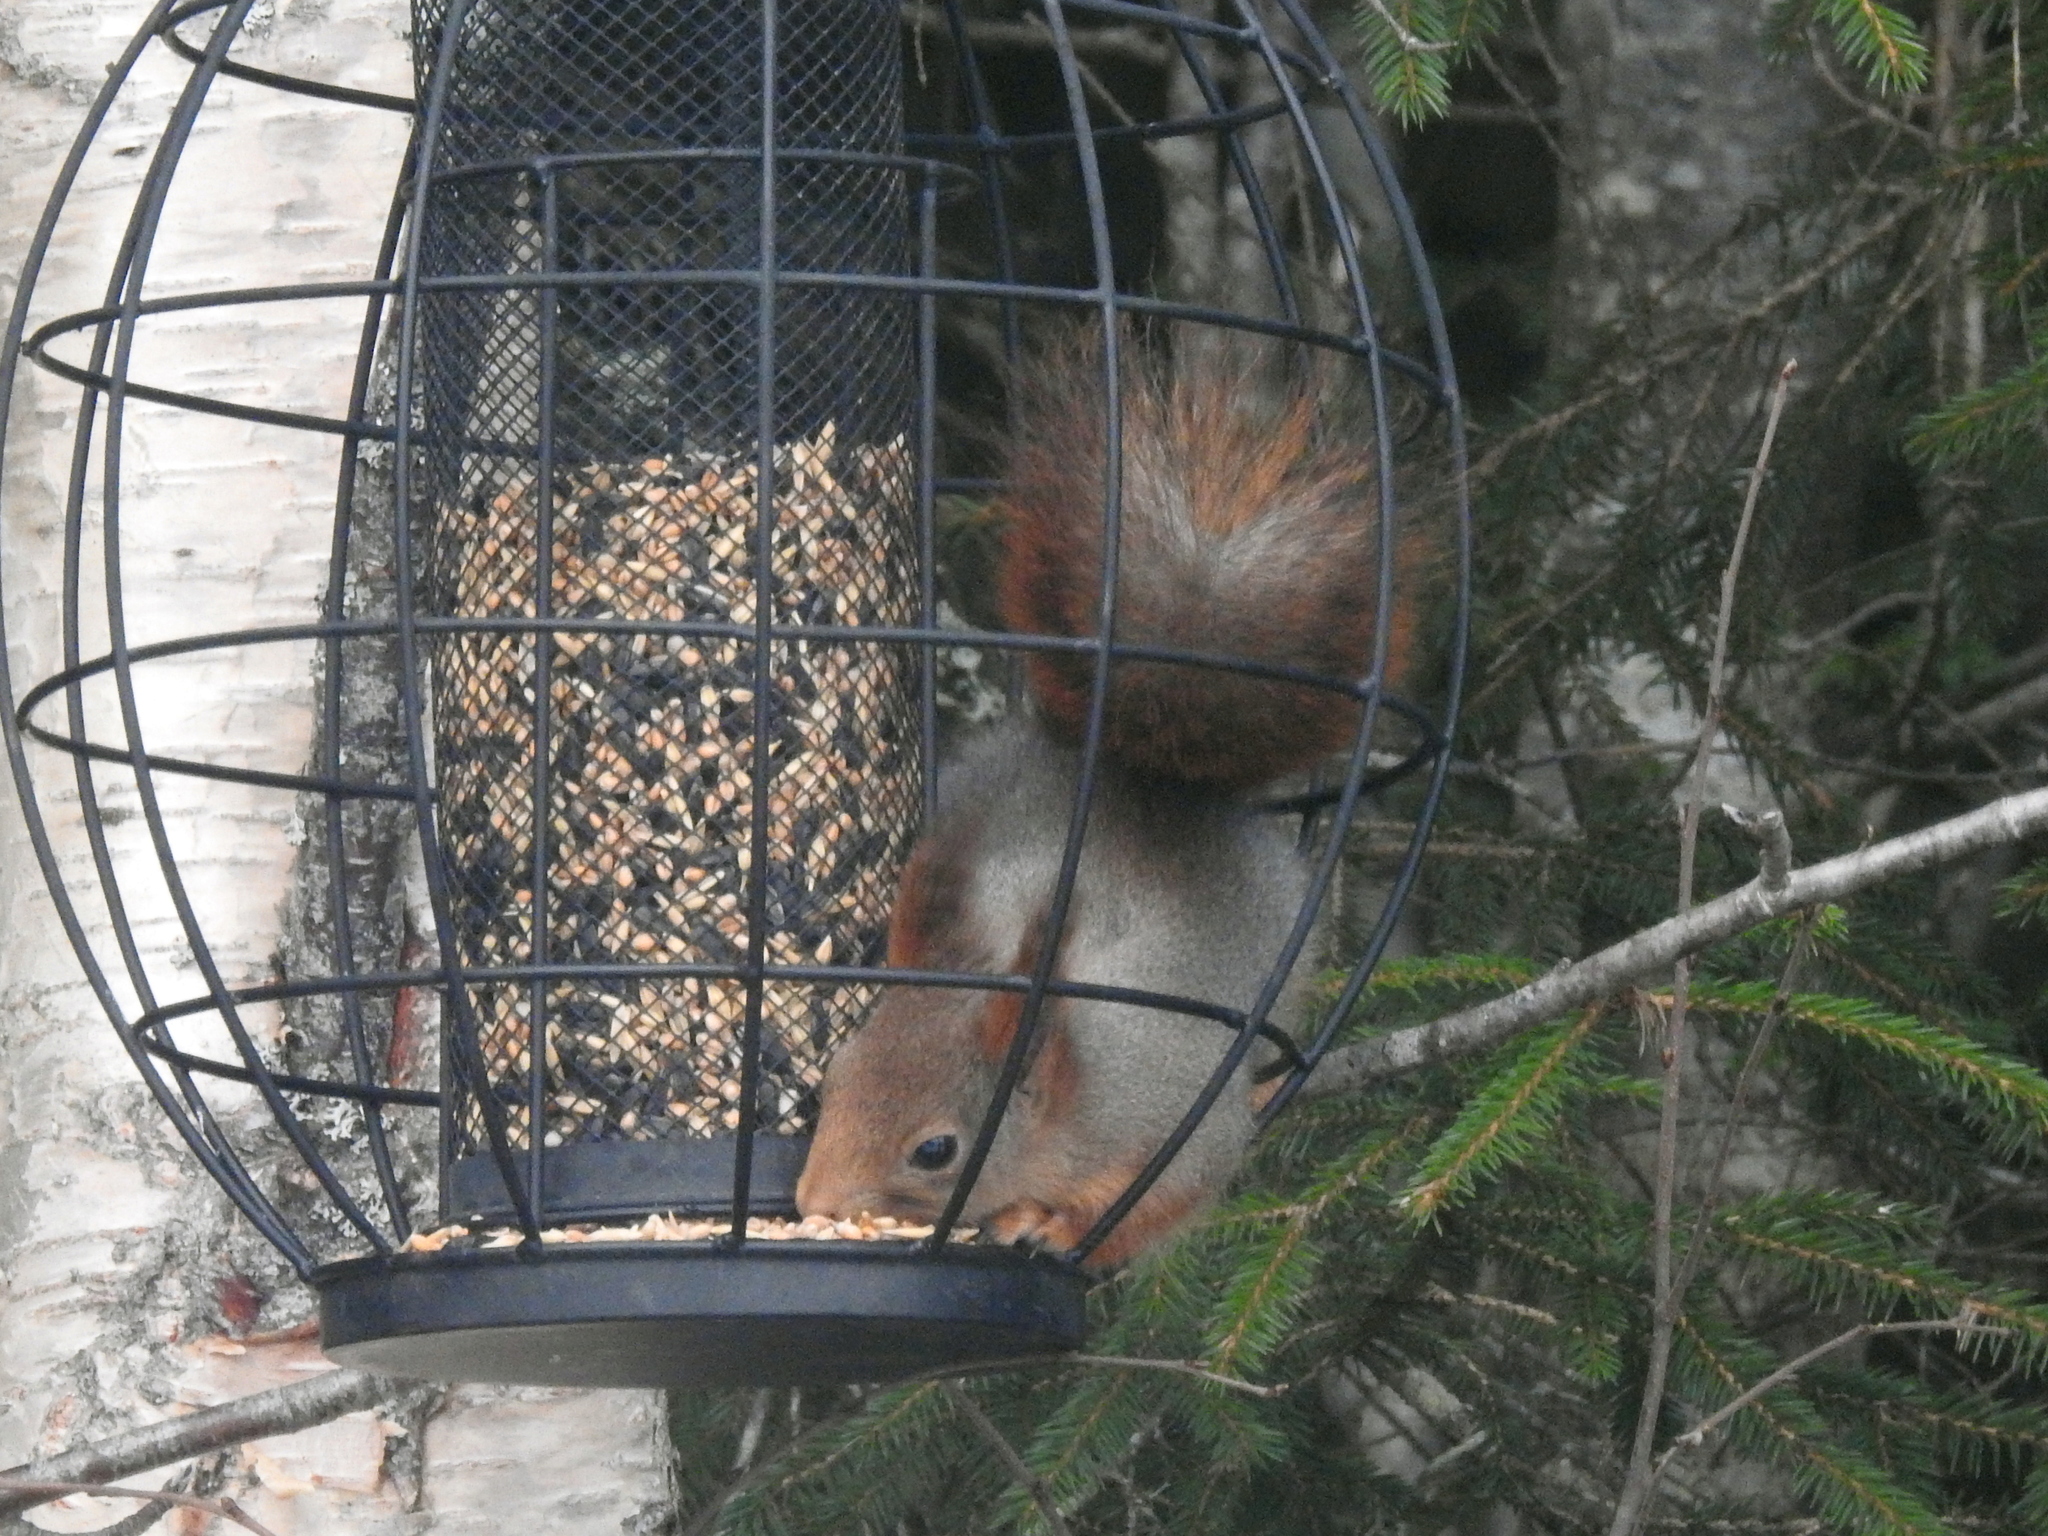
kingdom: Animalia
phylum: Chordata
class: Mammalia
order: Rodentia
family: Sciuridae
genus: Sciurus
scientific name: Sciurus vulgaris
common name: Eurasian red squirrel
